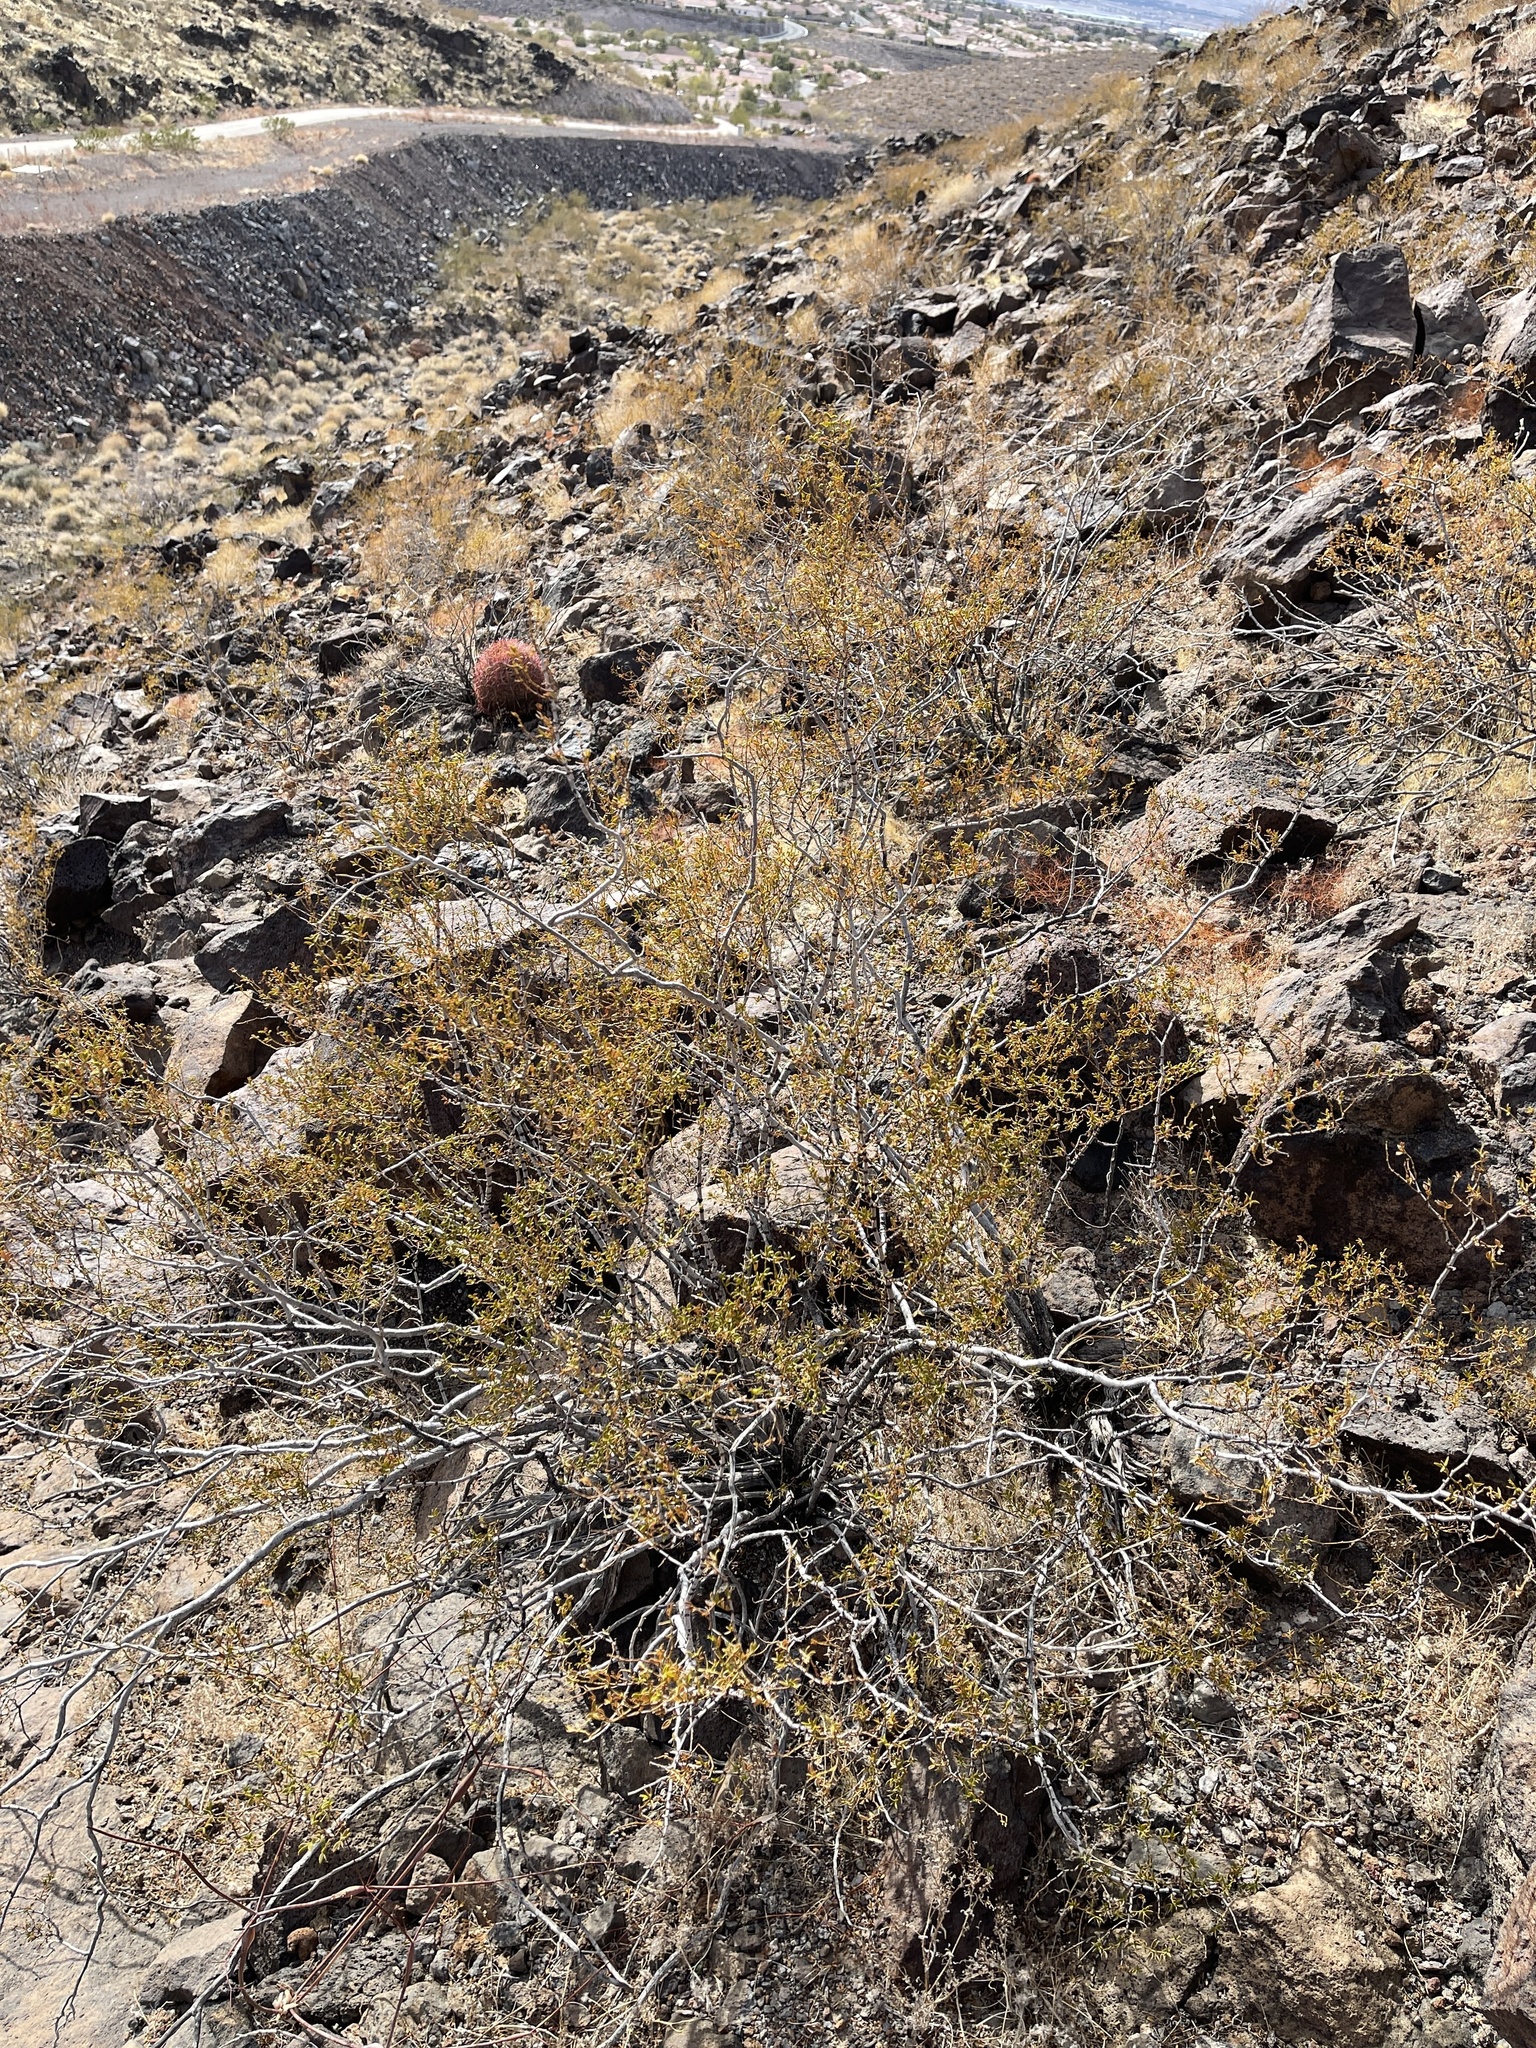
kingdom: Plantae
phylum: Tracheophyta
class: Magnoliopsida
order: Zygophyllales
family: Zygophyllaceae
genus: Larrea
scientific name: Larrea tridentata
